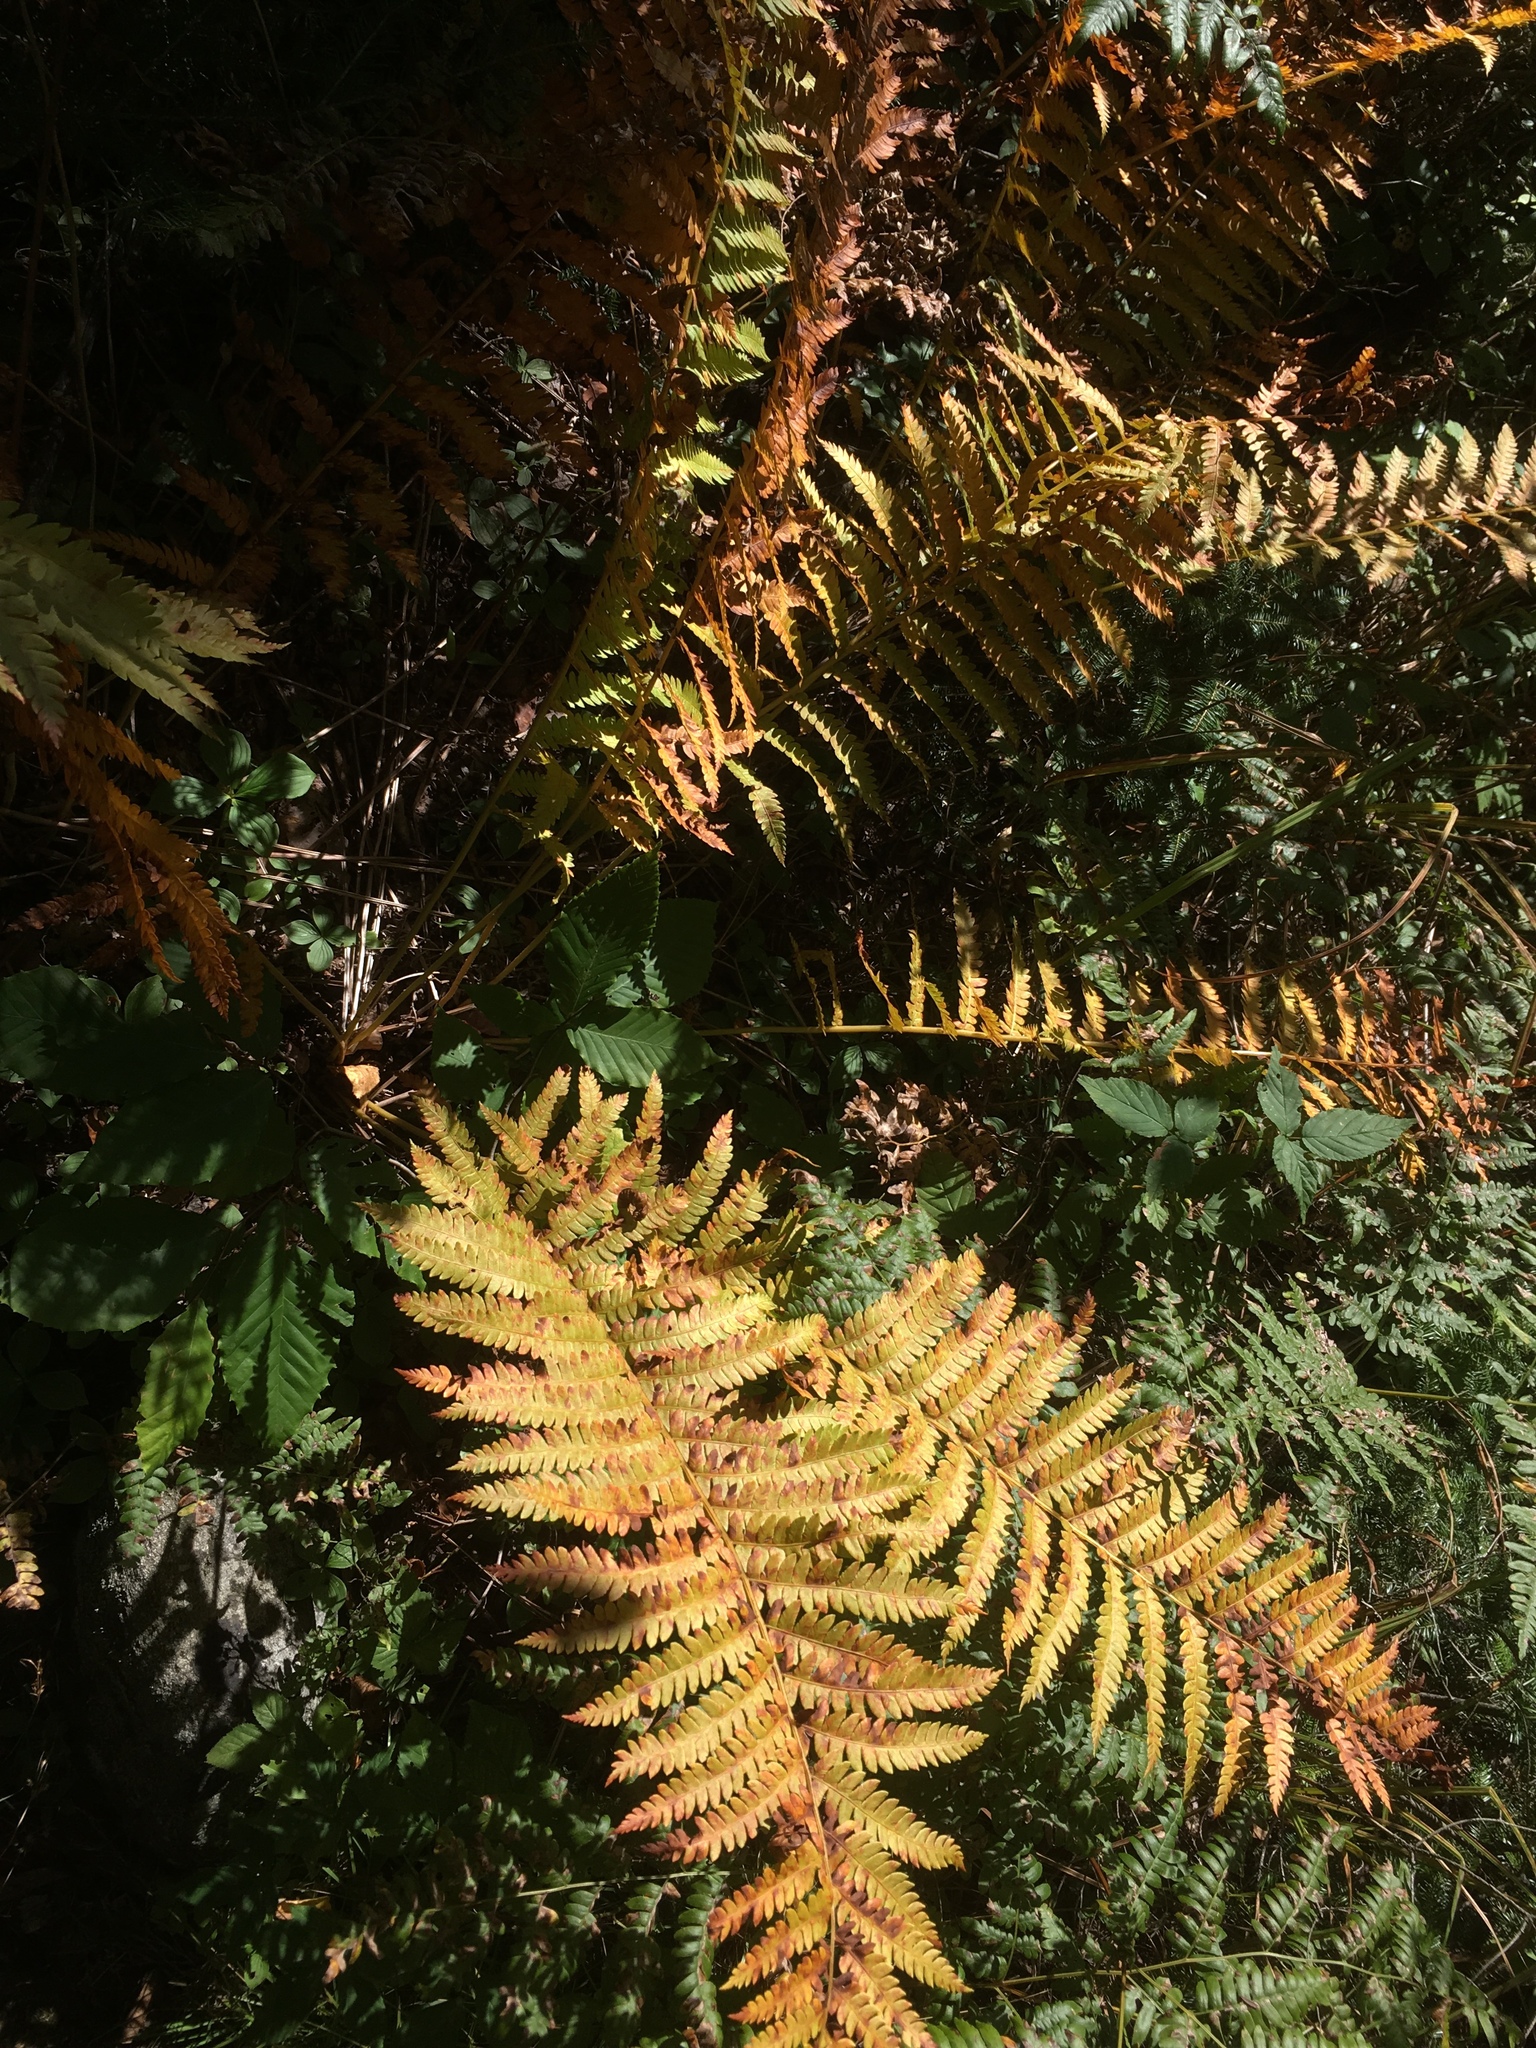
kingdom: Plantae
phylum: Tracheophyta
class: Polypodiopsida
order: Osmundales
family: Osmundaceae
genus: Osmundastrum
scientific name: Osmundastrum cinnamomeum
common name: Cinnamon fern
